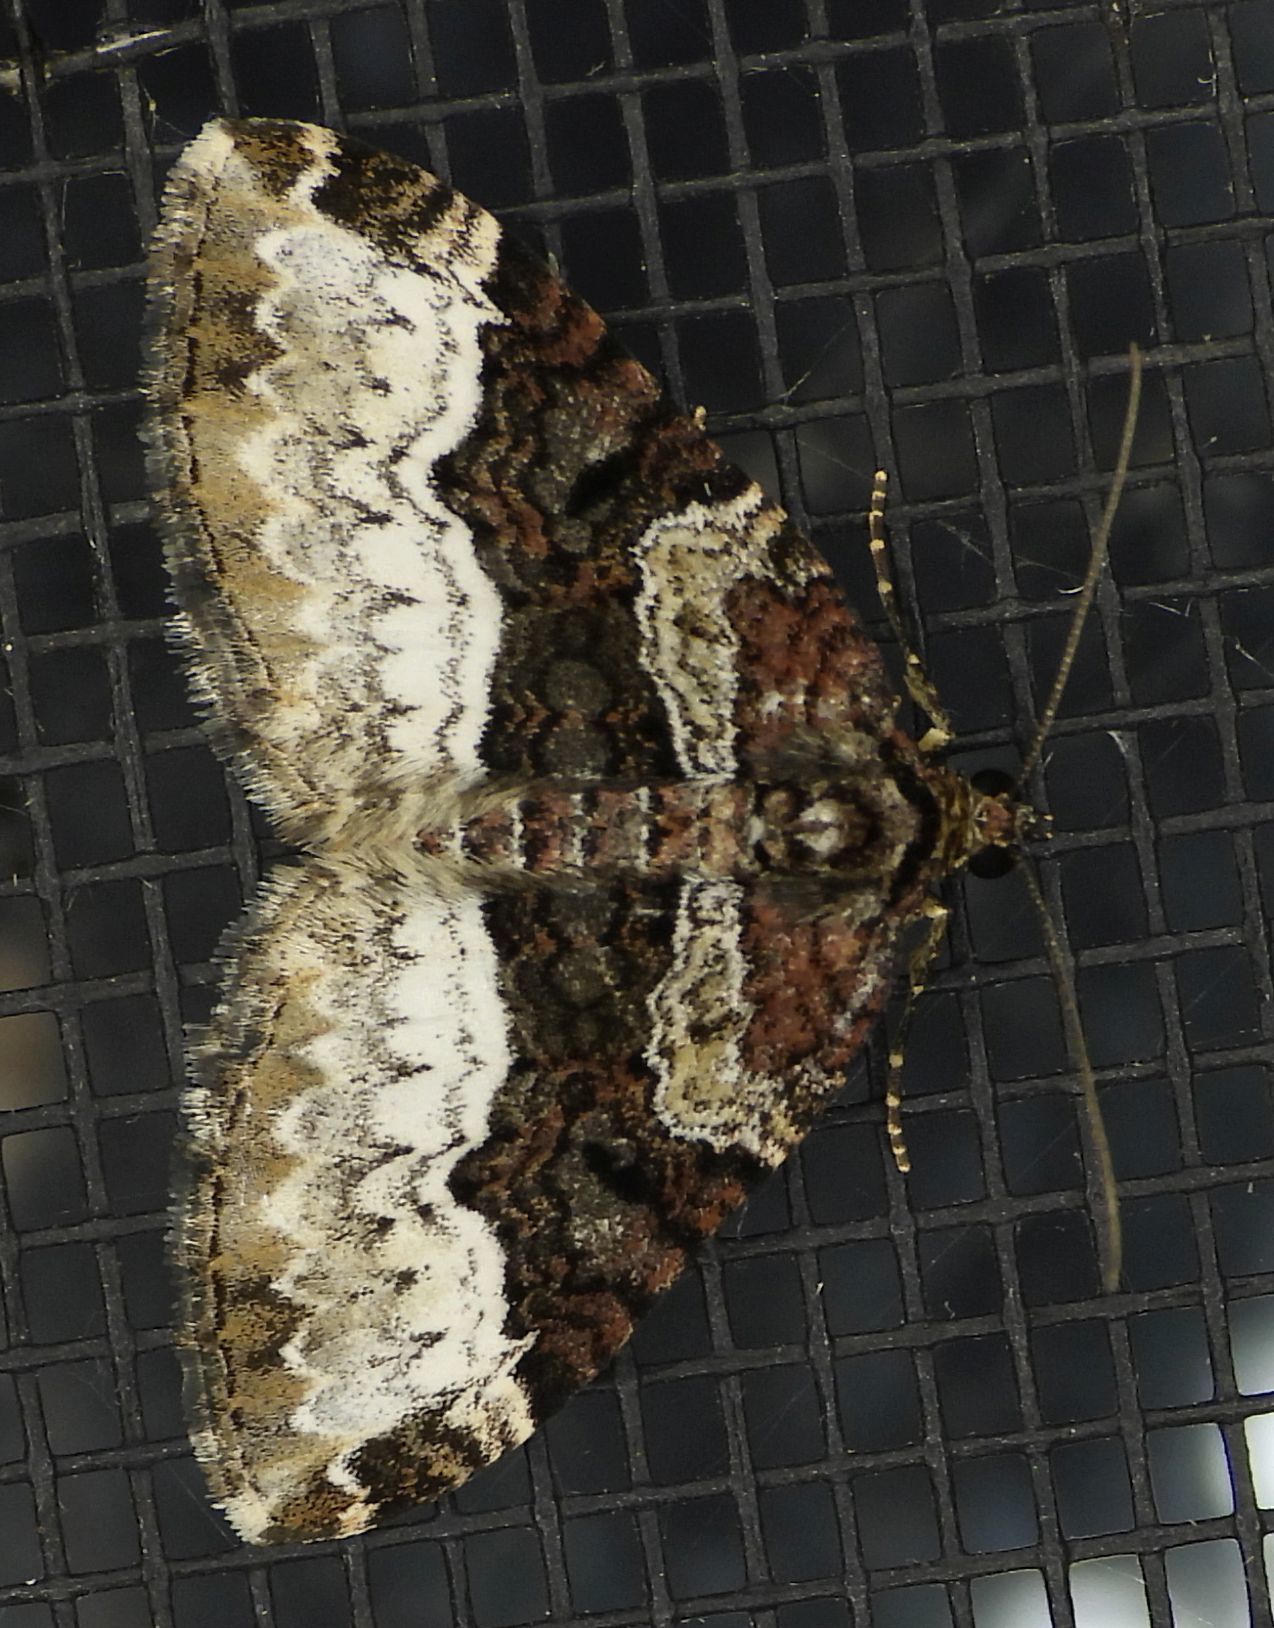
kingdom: Animalia
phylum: Arthropoda
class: Insecta
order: Lepidoptera
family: Geometridae
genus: Euphyia
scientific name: Euphyia intermediata
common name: Sharp-angled carpet
